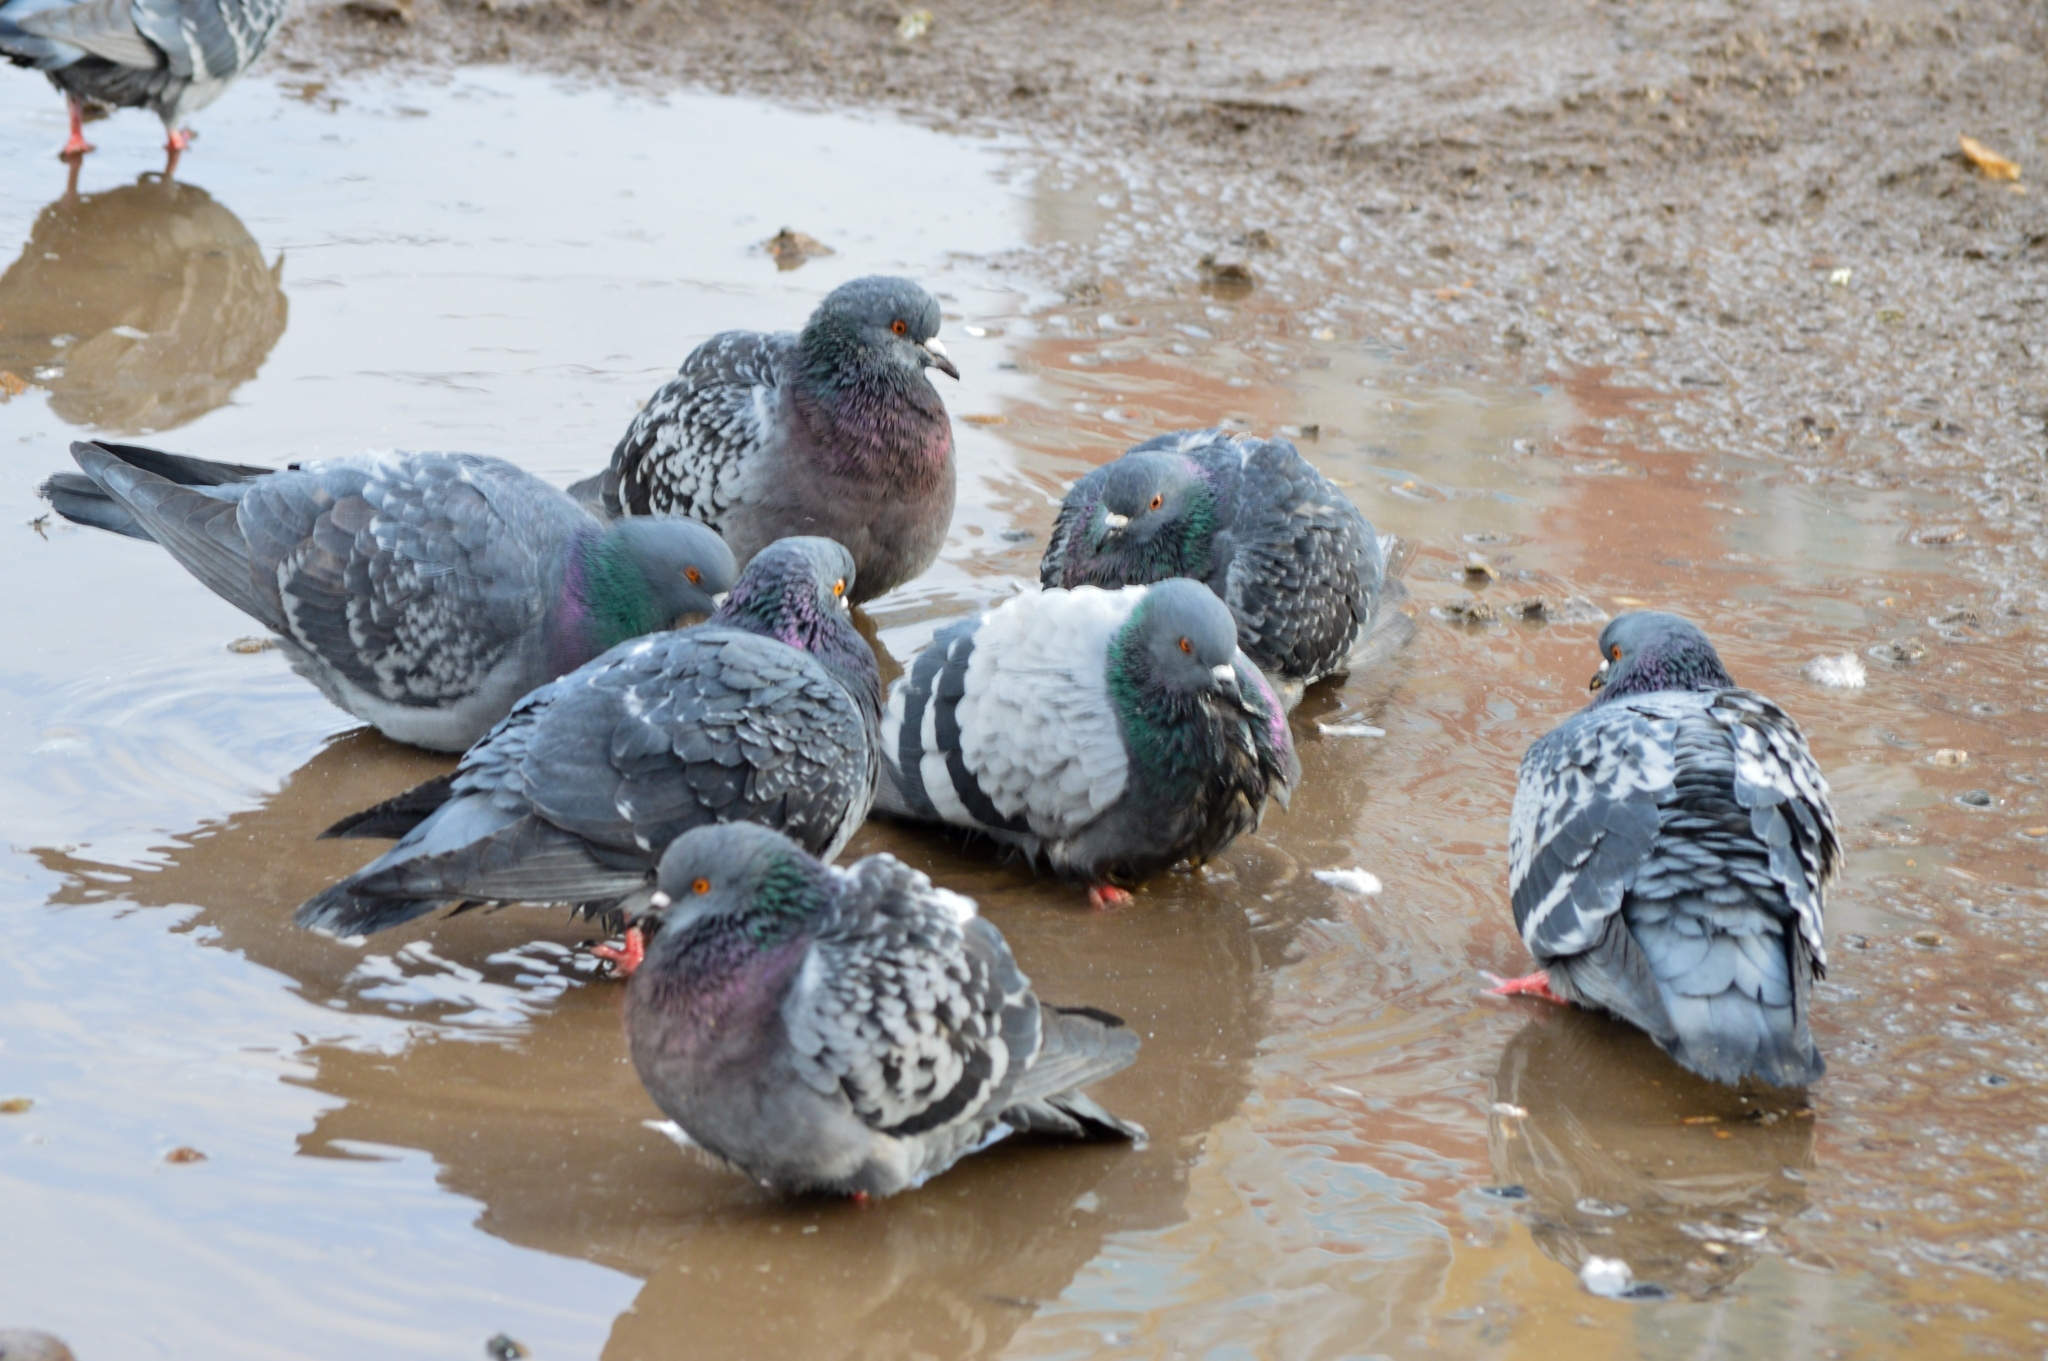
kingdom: Animalia
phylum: Chordata
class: Aves
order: Columbiformes
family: Columbidae
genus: Columba
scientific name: Columba livia
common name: Rock pigeon
